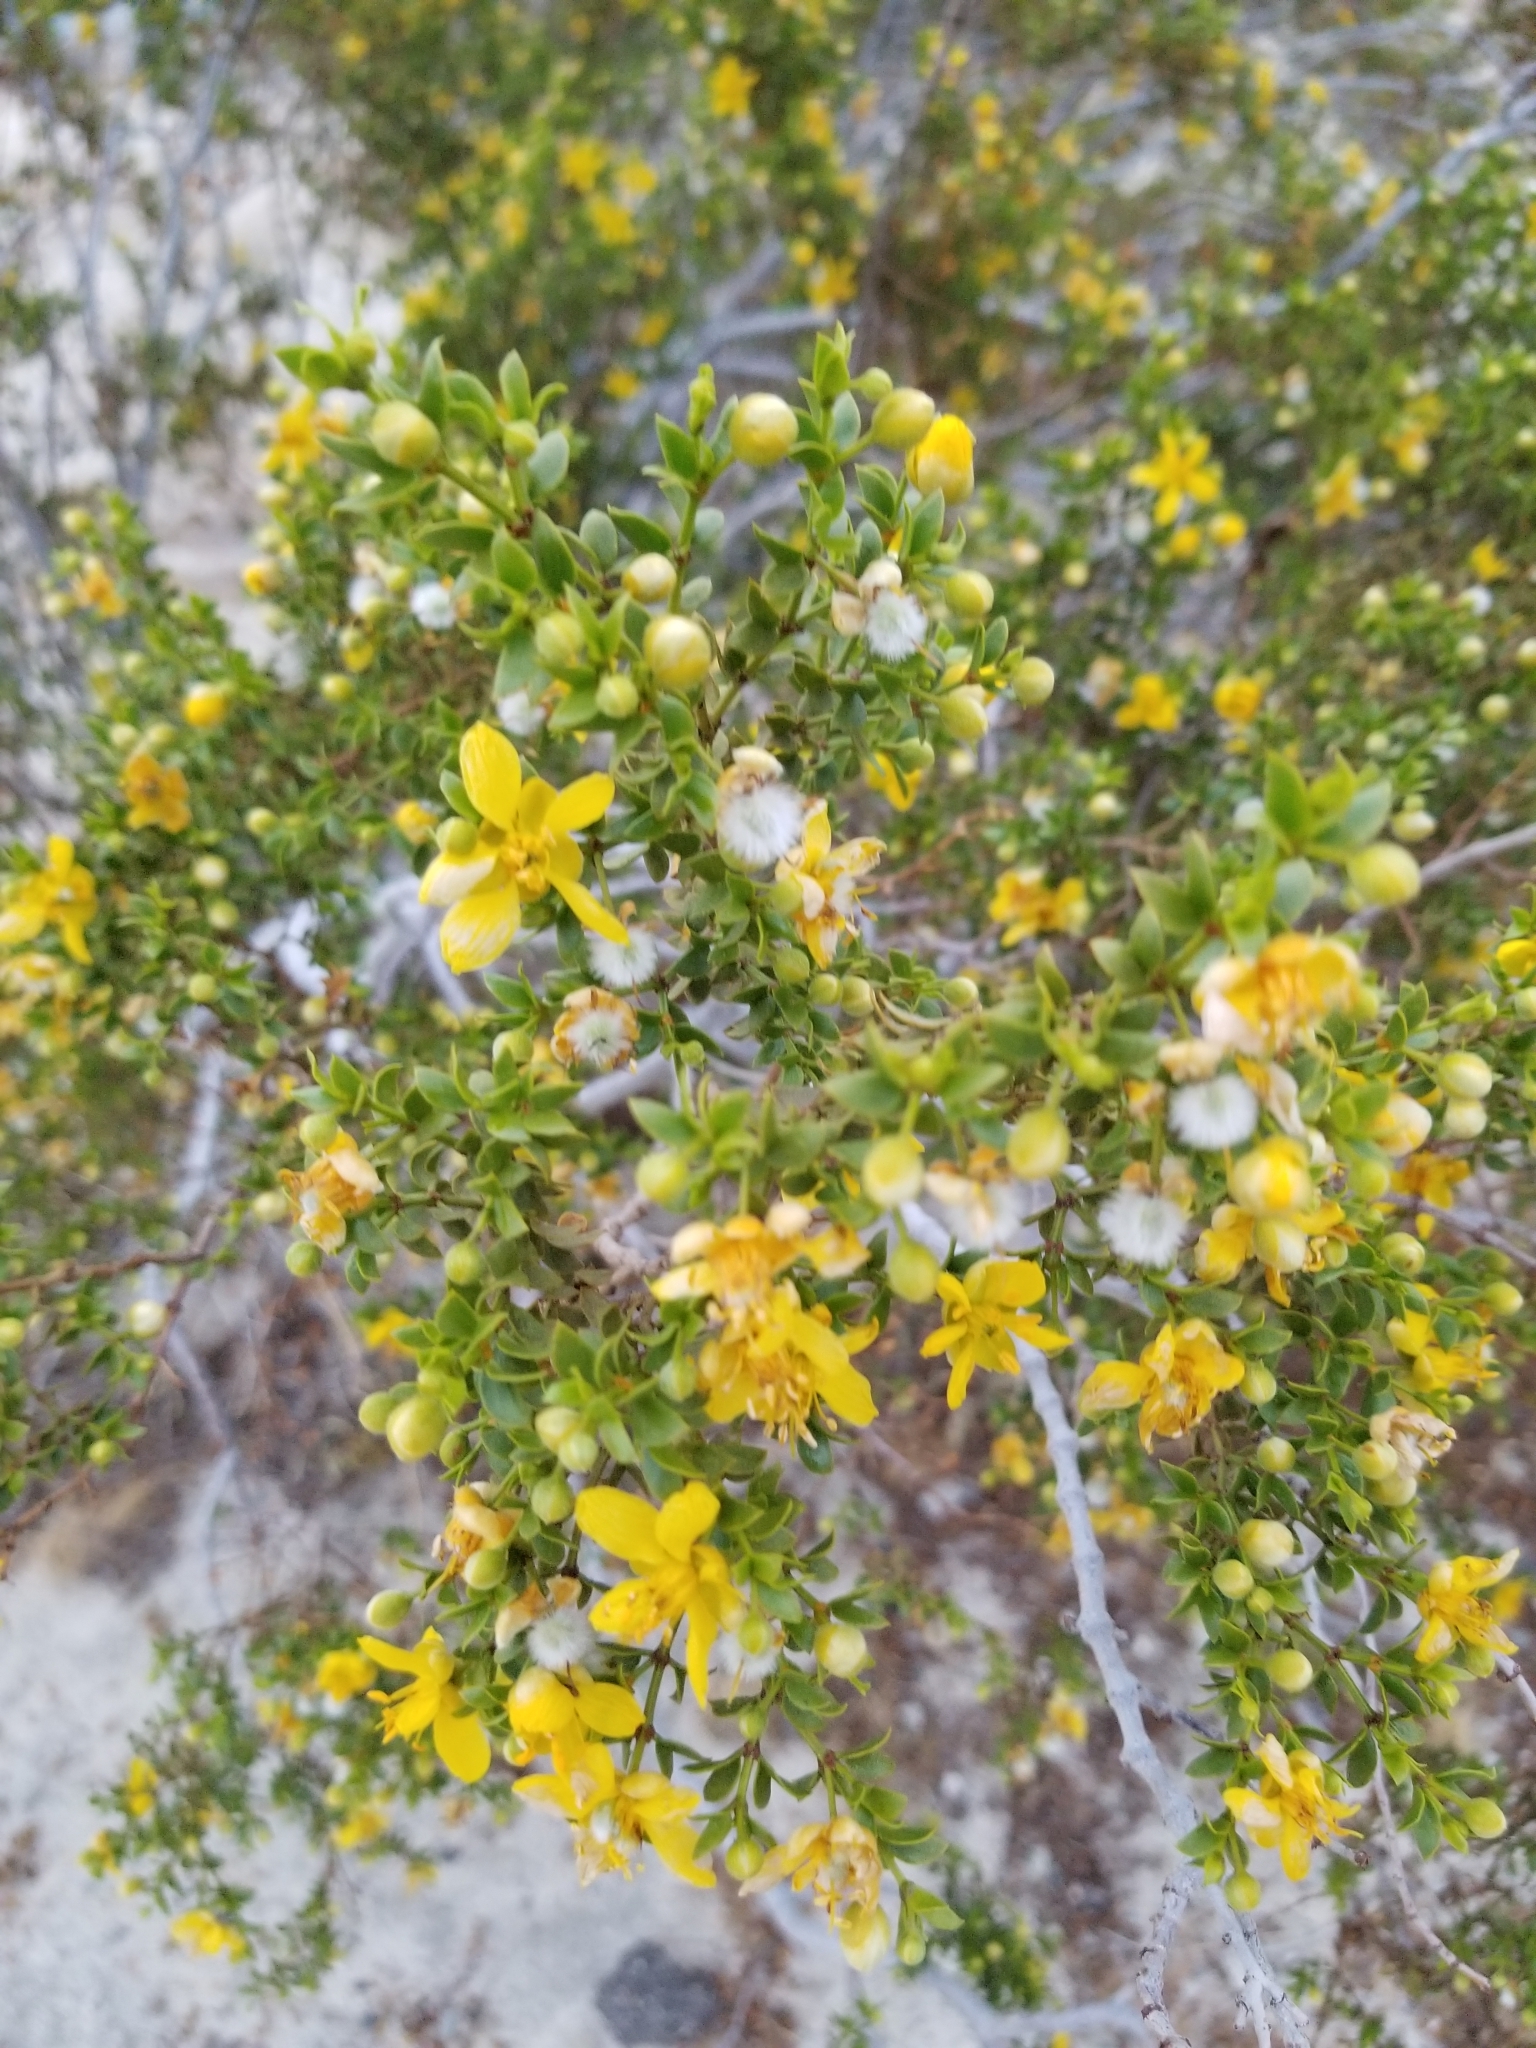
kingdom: Plantae
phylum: Tracheophyta
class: Magnoliopsida
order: Zygophyllales
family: Zygophyllaceae
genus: Larrea
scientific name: Larrea tridentata
